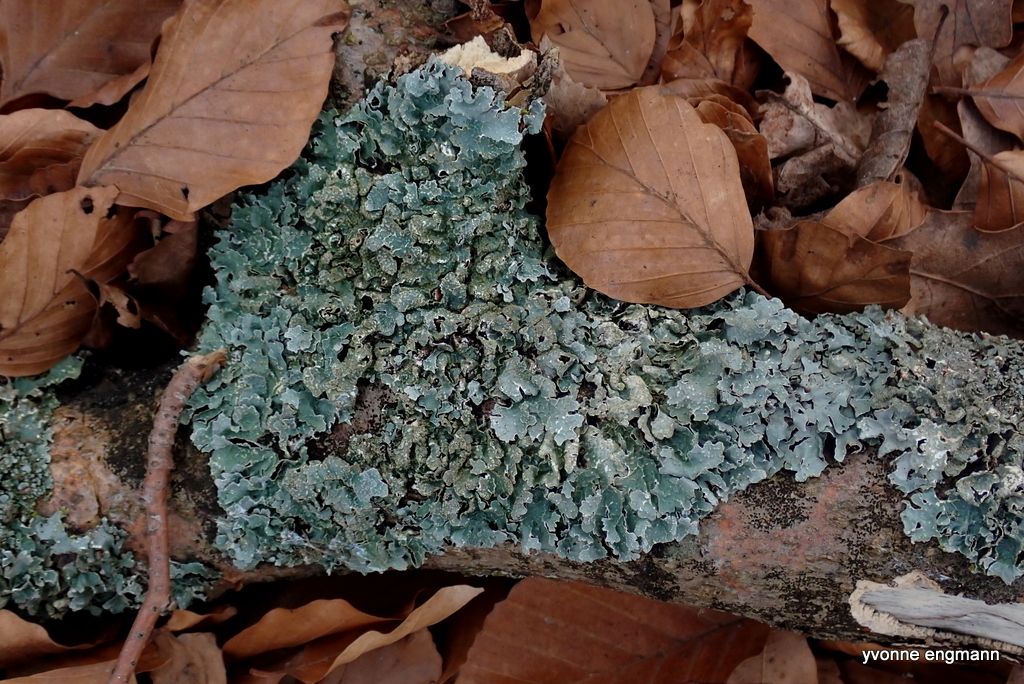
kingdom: Fungi
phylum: Ascomycota
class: Lecanoromycetes
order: Lecanorales
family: Parmeliaceae
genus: Parmelia
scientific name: Parmelia sulcata
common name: Netted shield lichen
